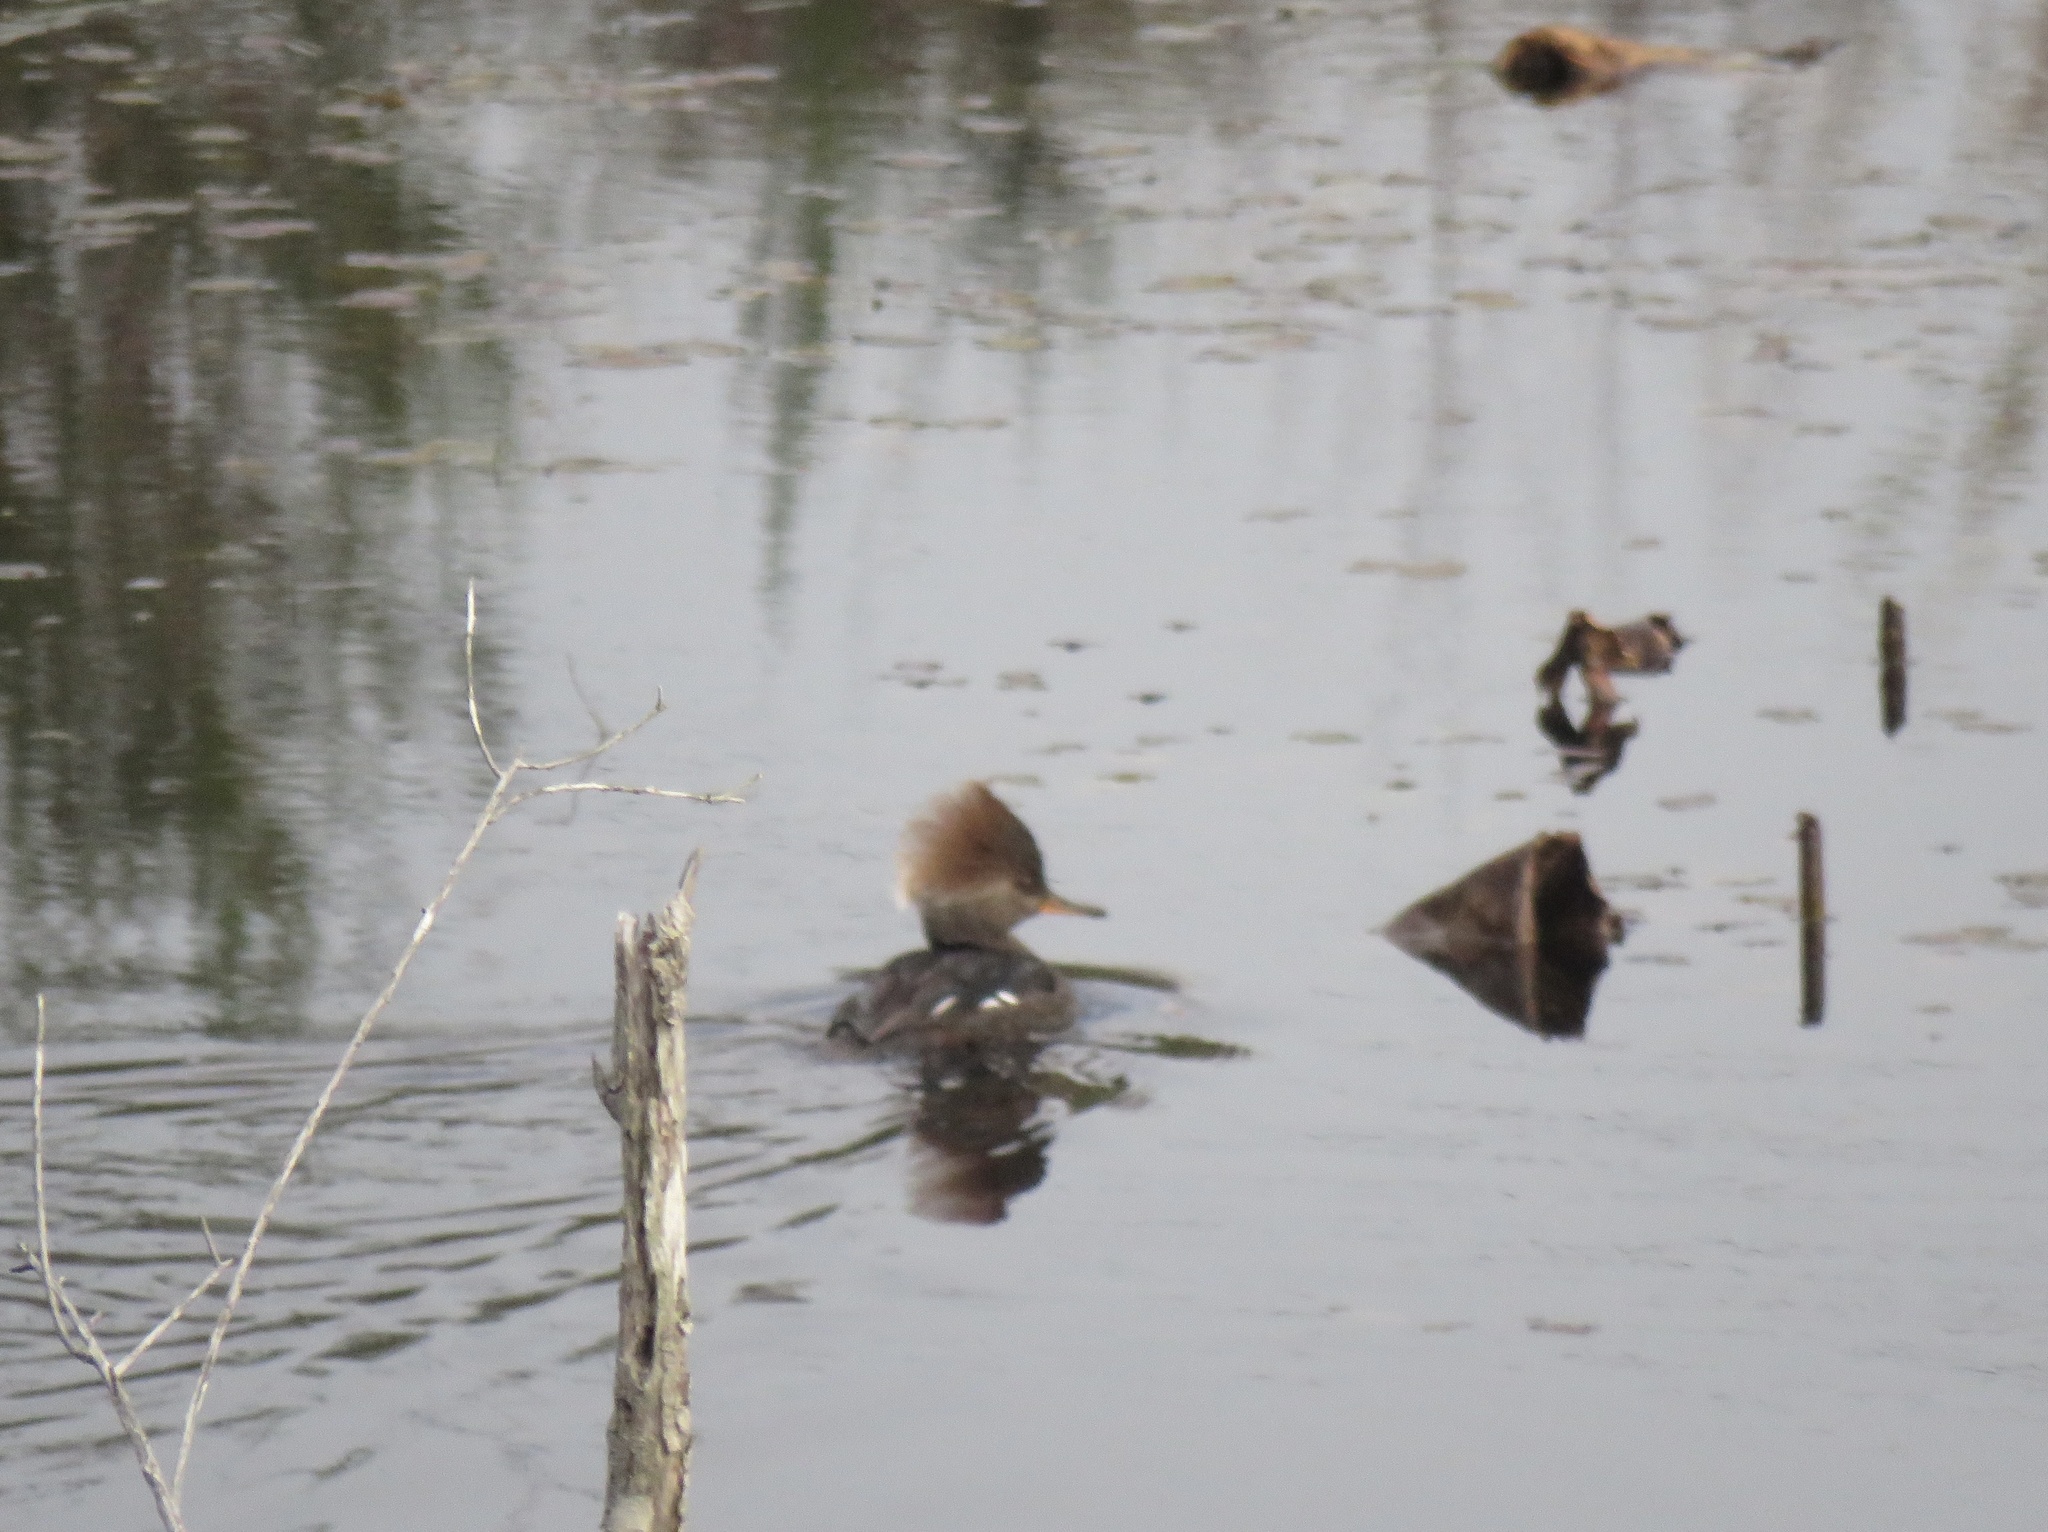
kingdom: Animalia
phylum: Chordata
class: Aves
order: Anseriformes
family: Anatidae
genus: Lophodytes
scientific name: Lophodytes cucullatus
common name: Hooded merganser
